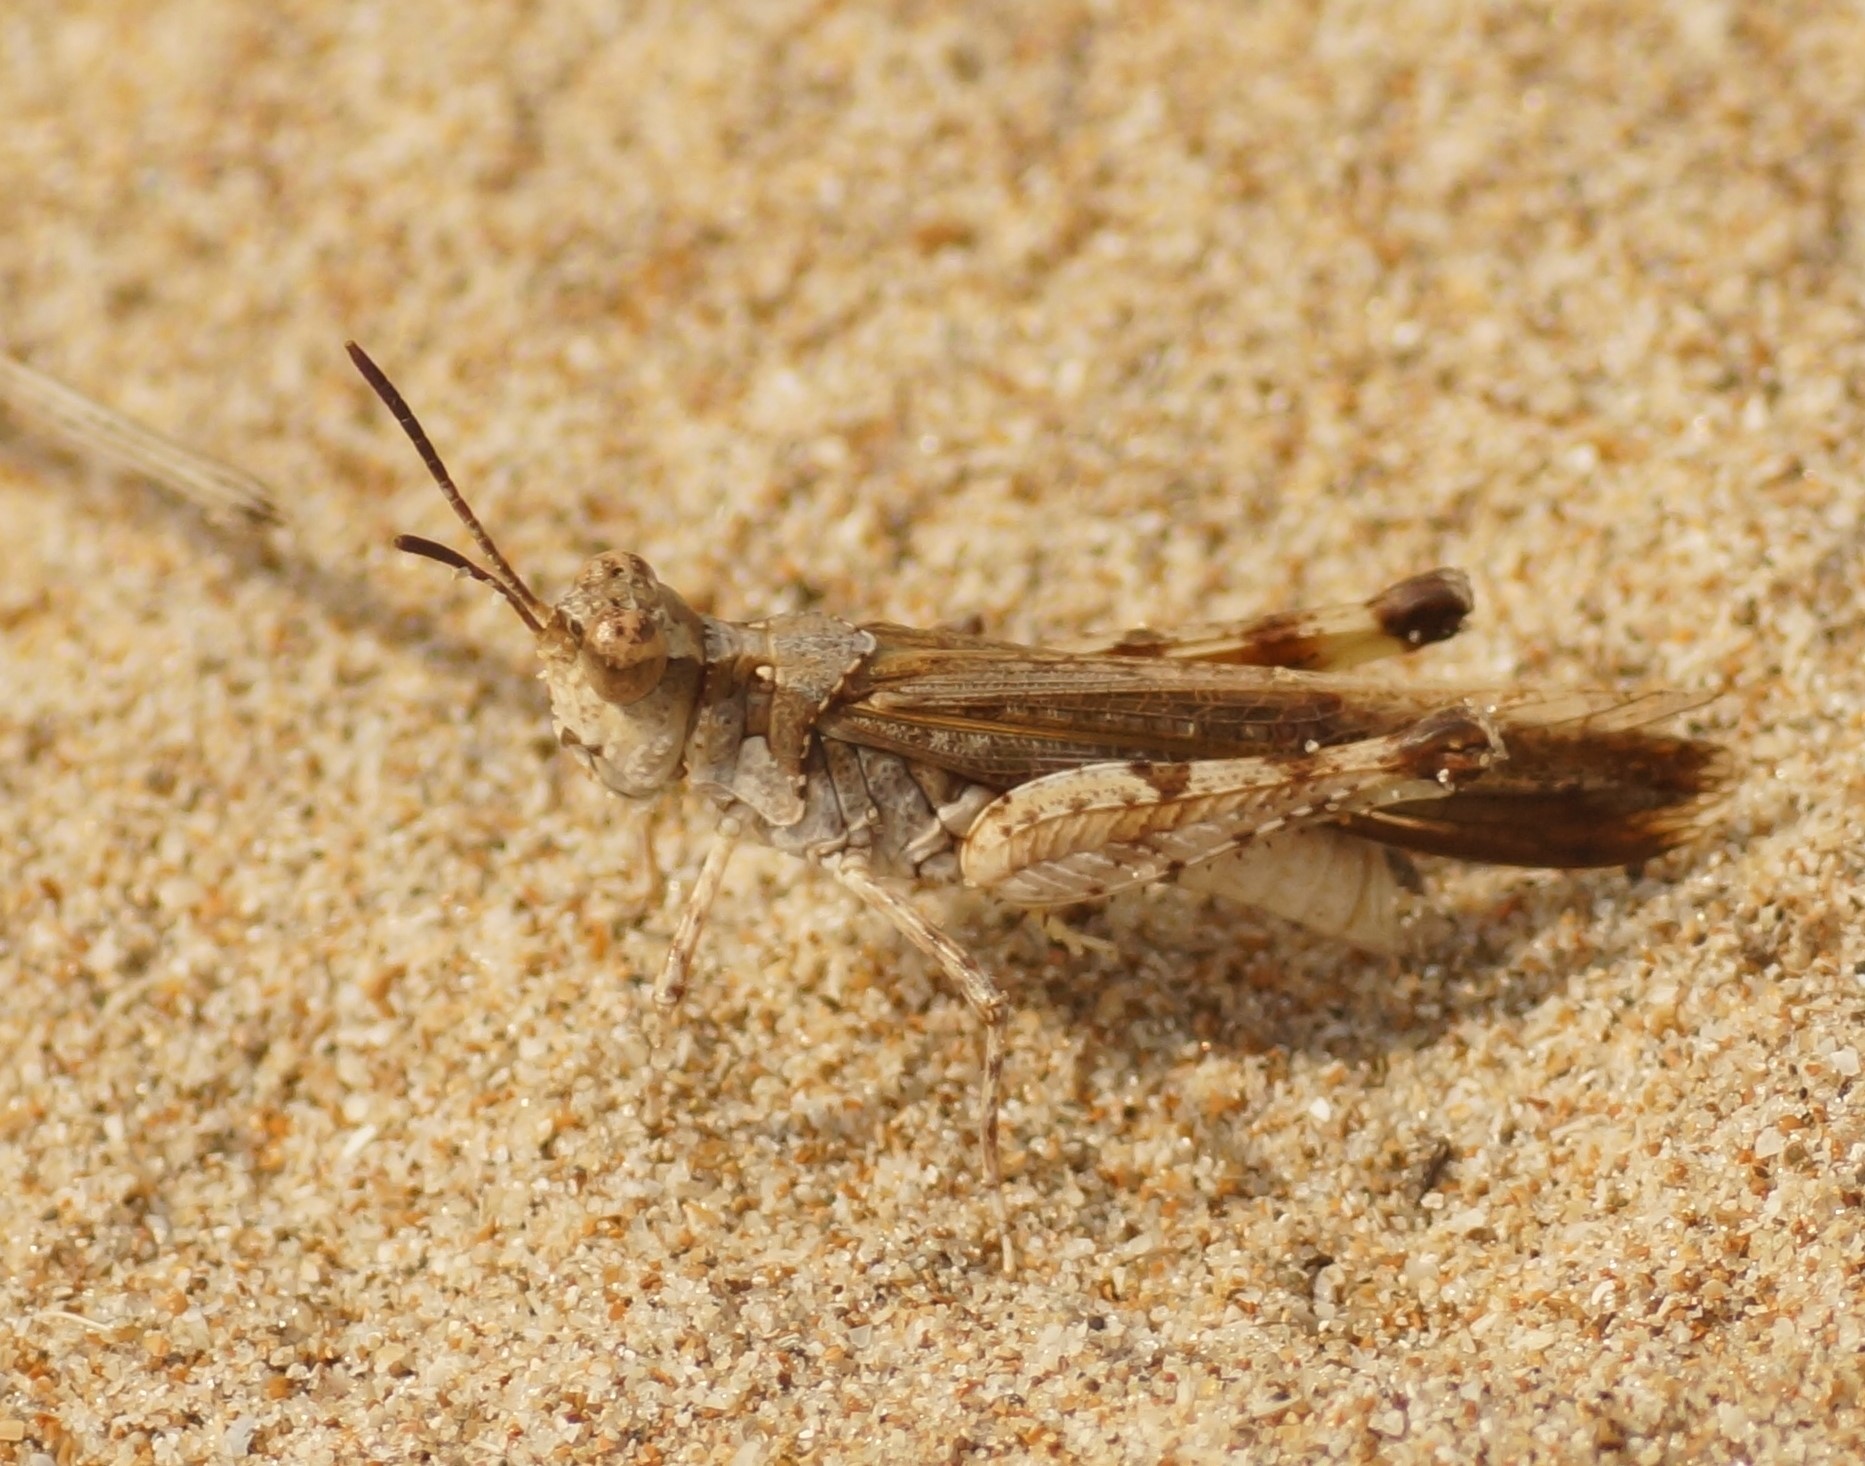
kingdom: Animalia
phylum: Arthropoda
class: Insecta
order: Orthoptera
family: Acrididae
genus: Pycnostictus
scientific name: Pycnostictus seriatus
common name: Common bandwing
